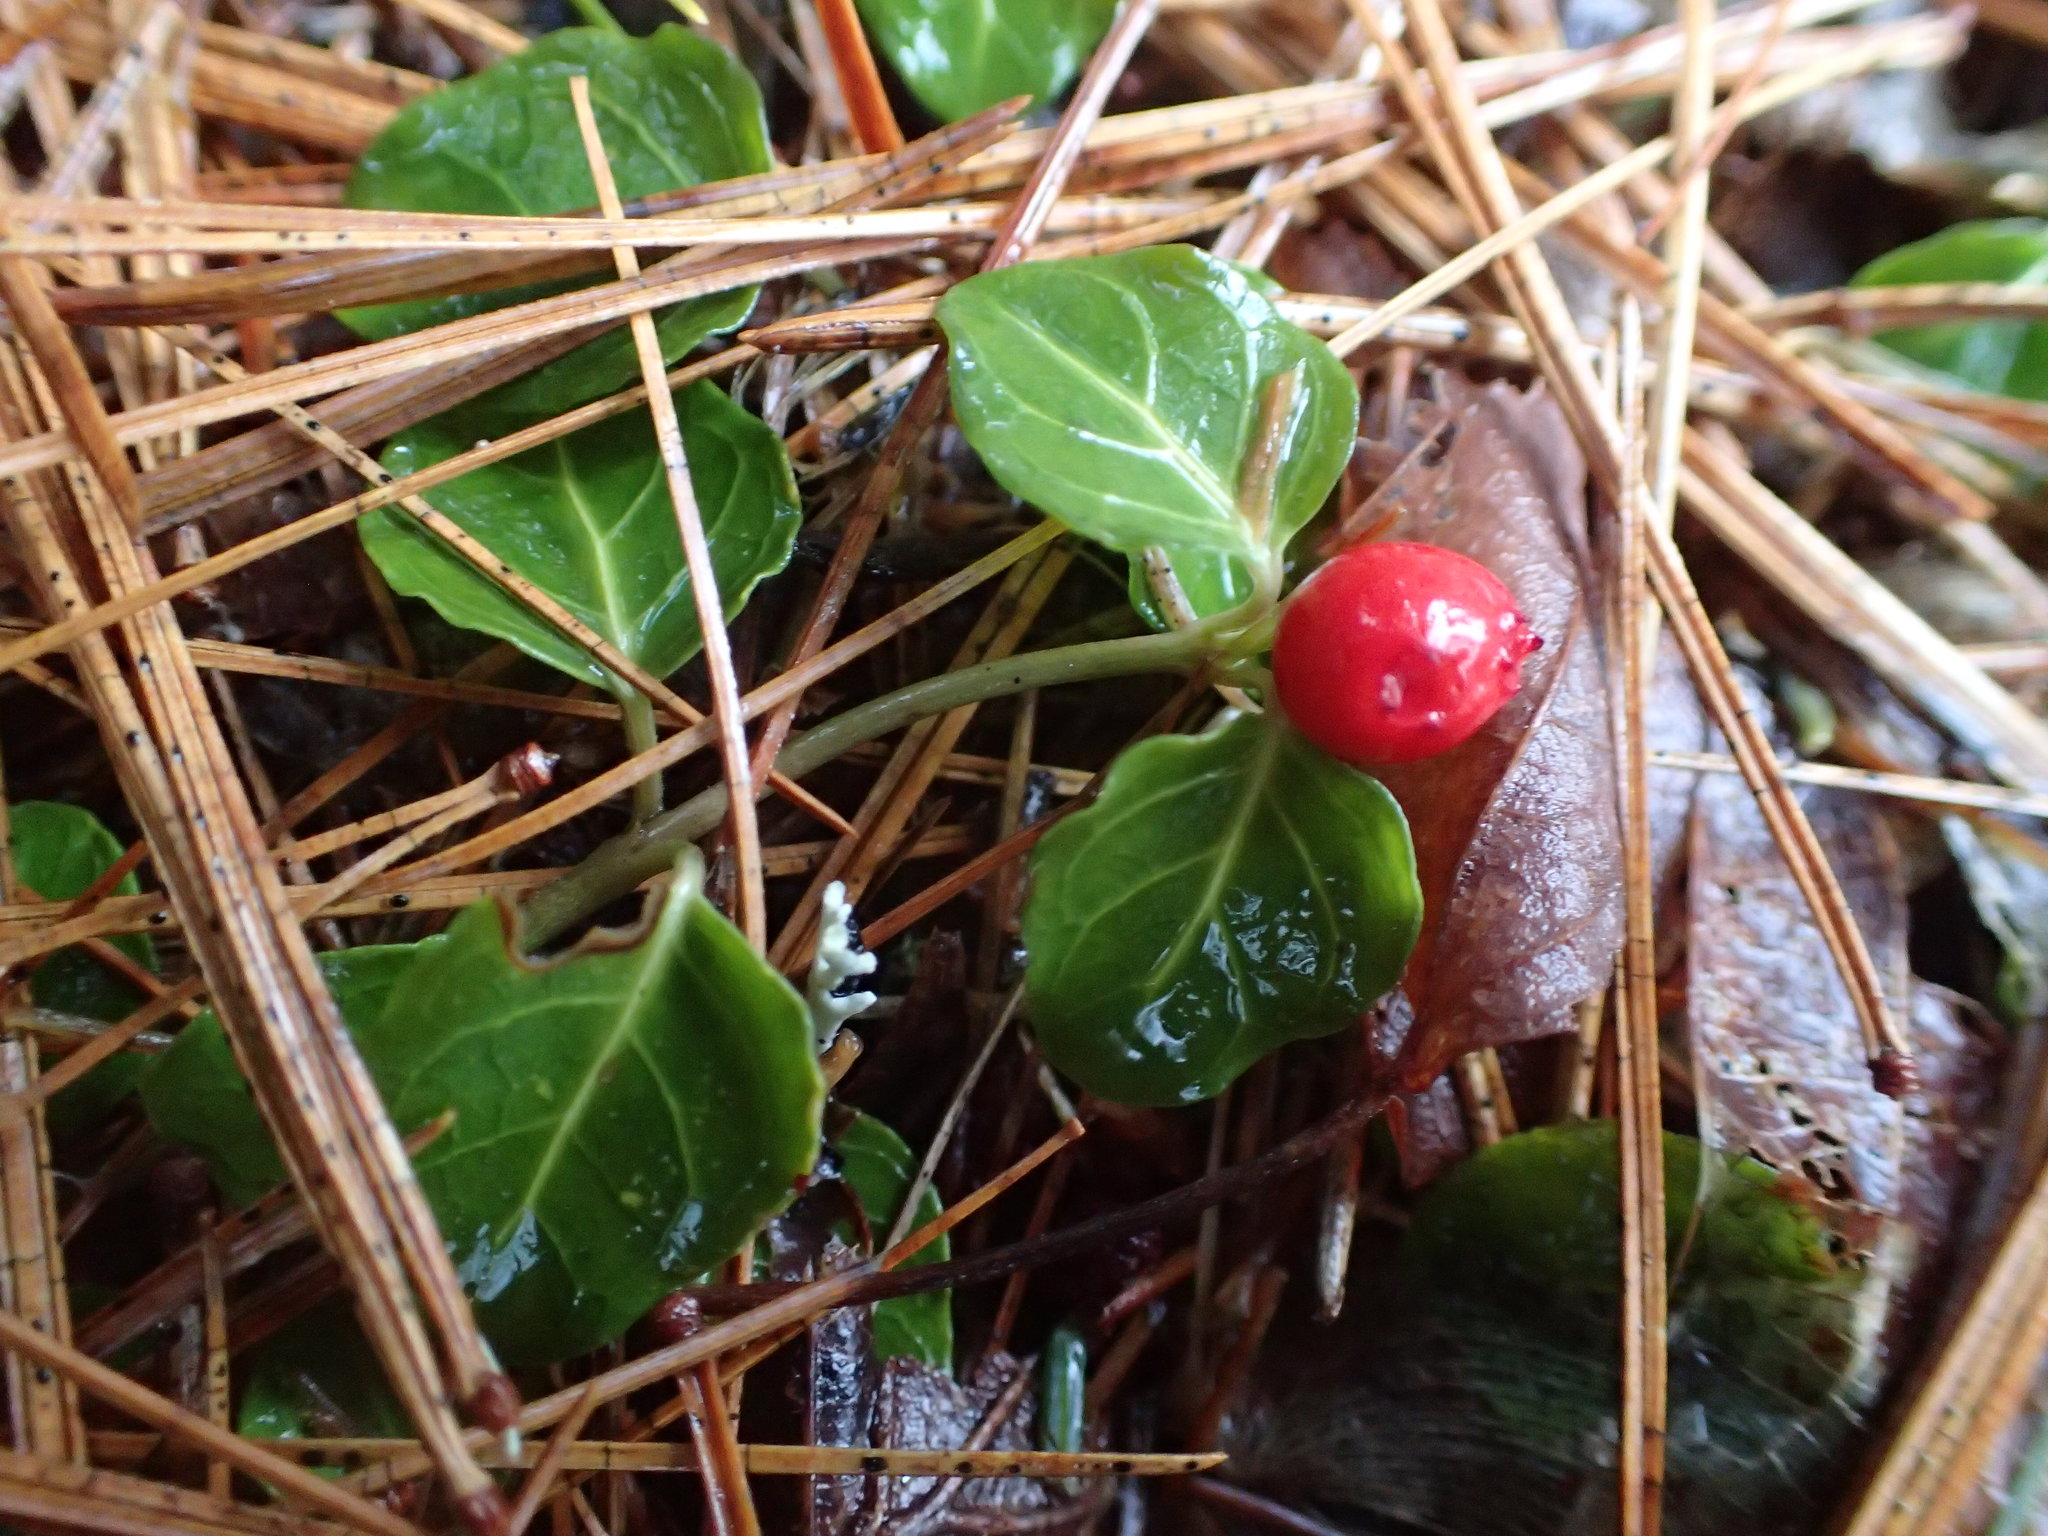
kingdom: Plantae
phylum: Tracheophyta
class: Magnoliopsida
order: Gentianales
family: Rubiaceae
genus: Mitchella
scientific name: Mitchella repens
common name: Partridge-berry
